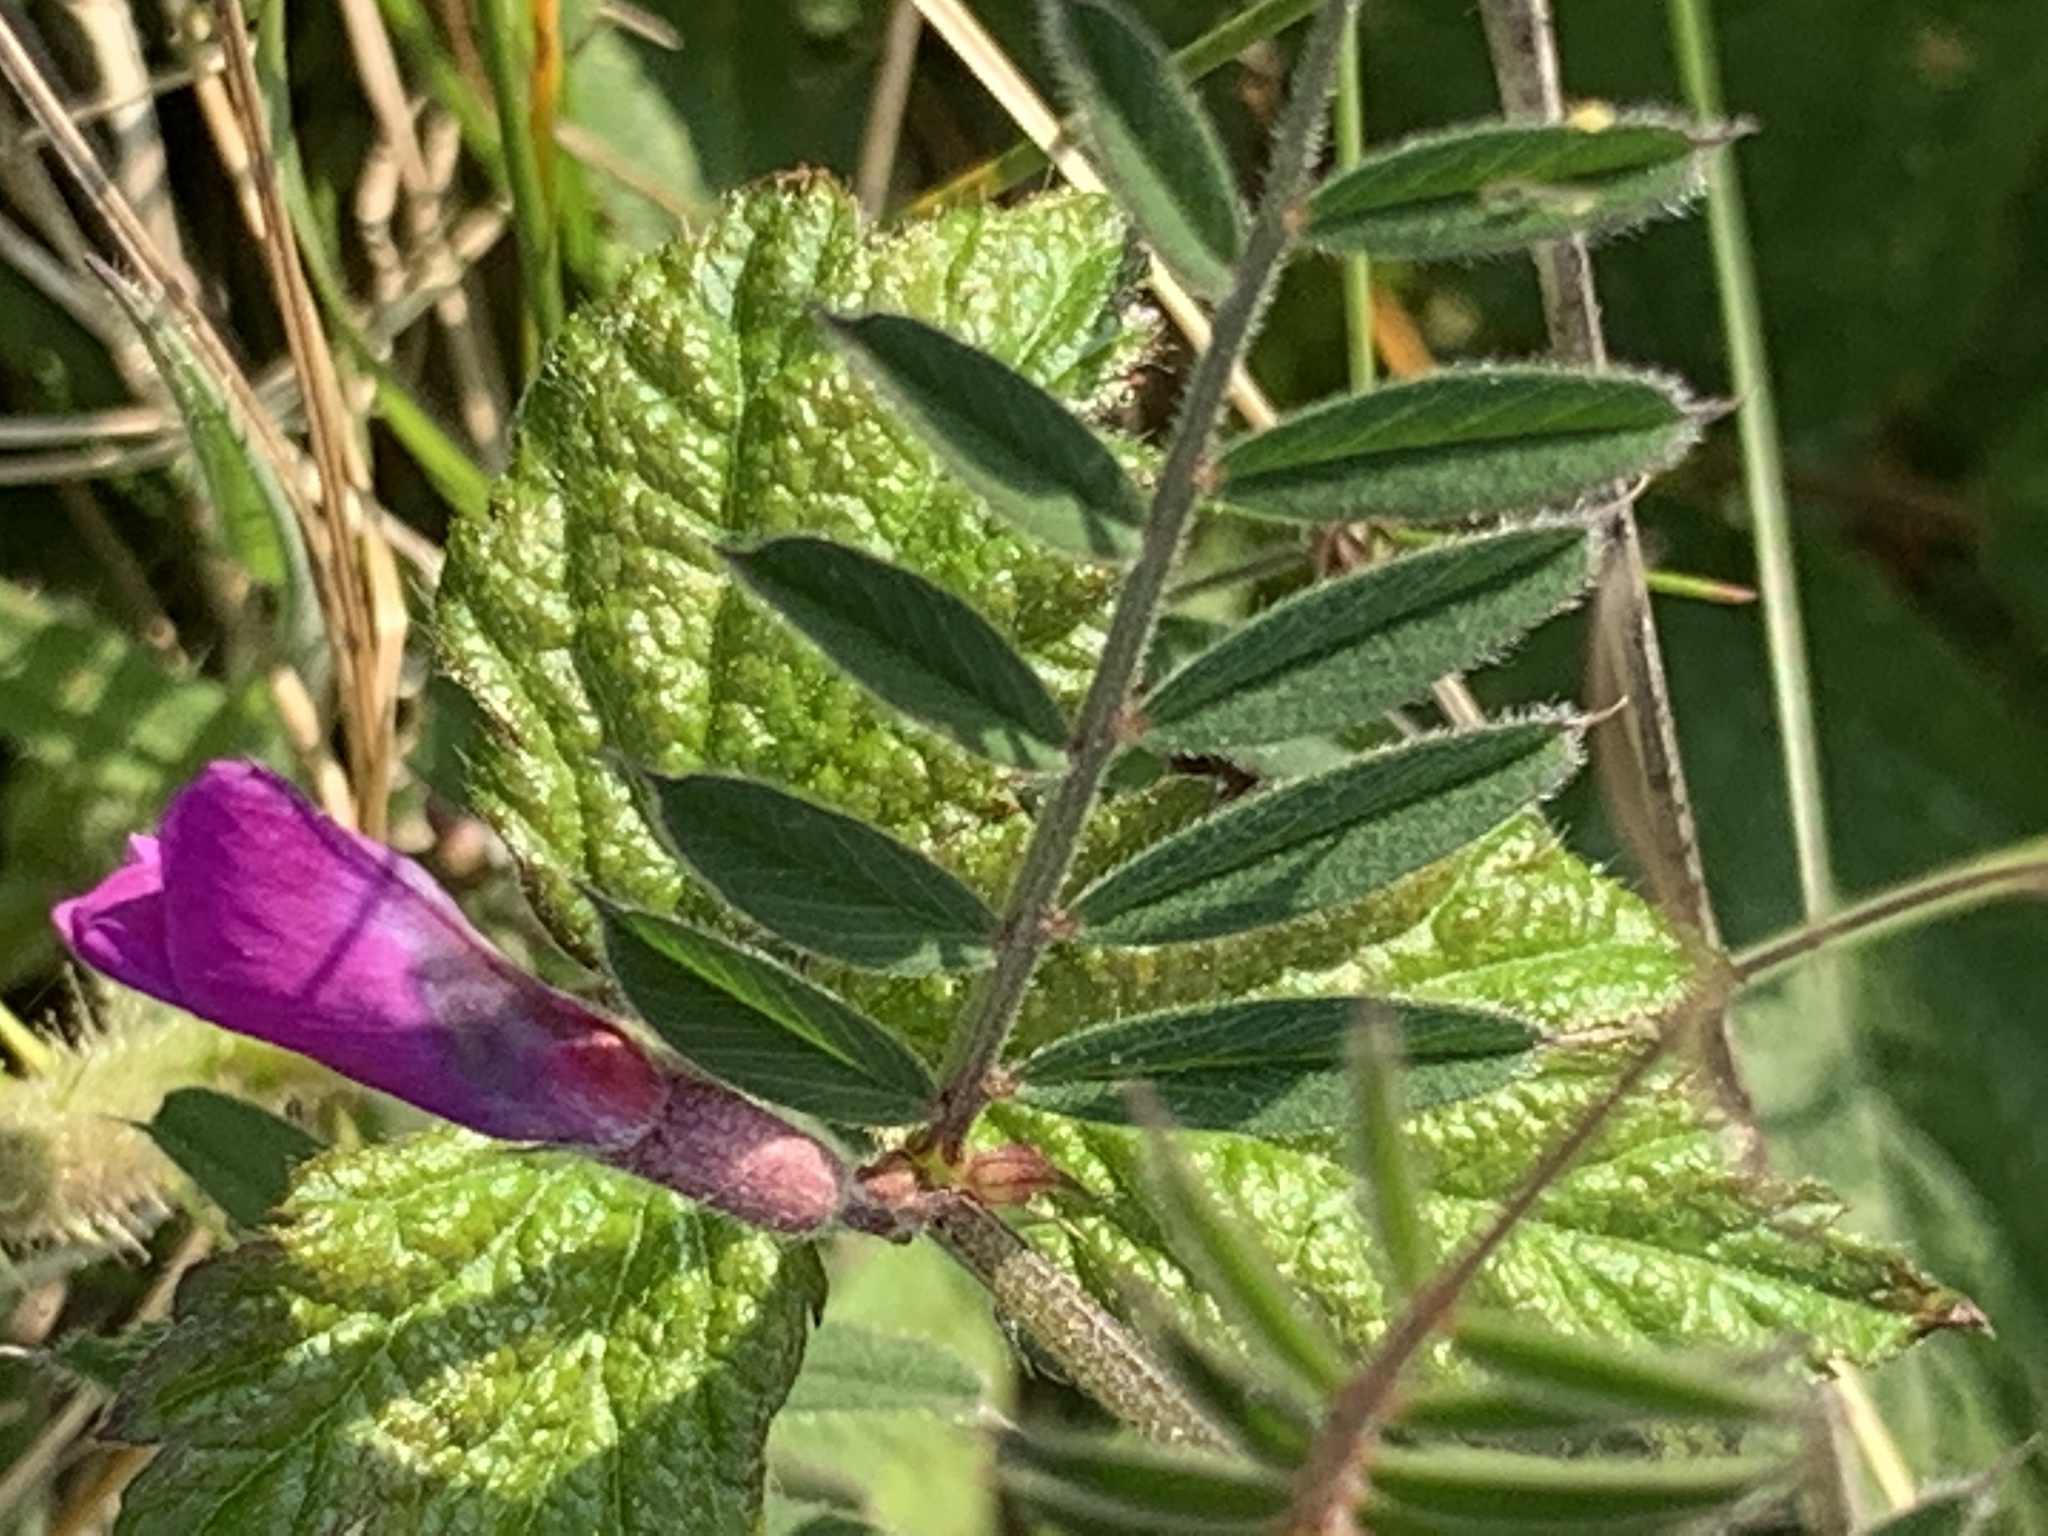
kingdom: Plantae
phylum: Tracheophyta
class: Magnoliopsida
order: Fabales
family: Fabaceae
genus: Vicia
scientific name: Vicia sativa
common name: Garden vetch
